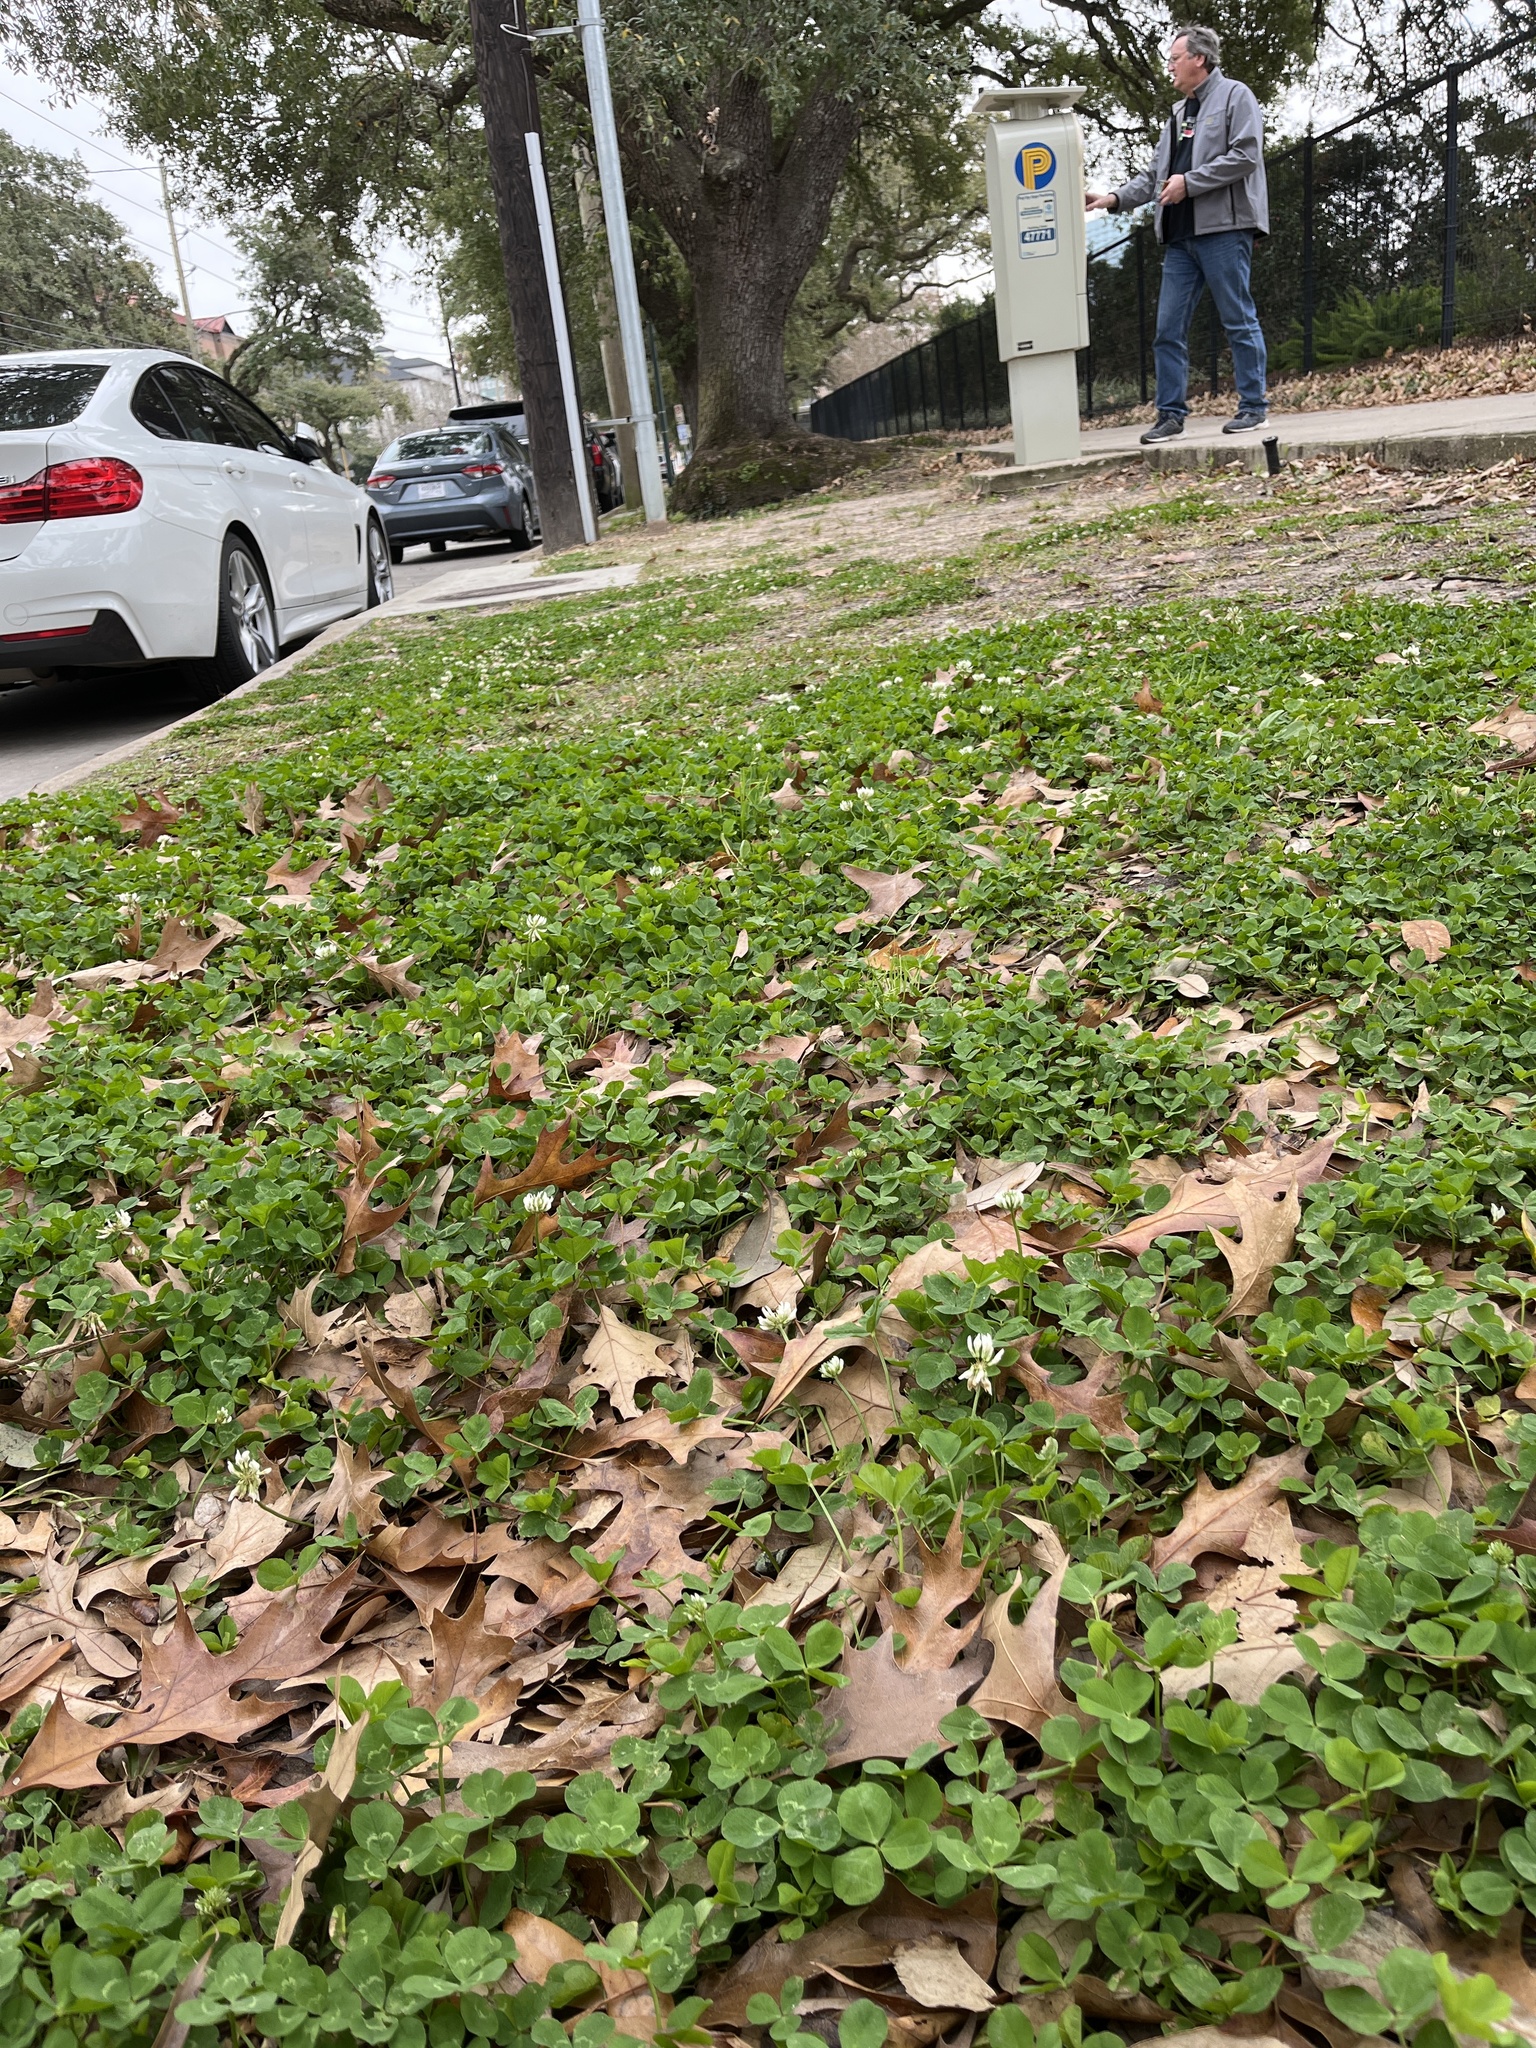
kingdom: Plantae
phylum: Tracheophyta
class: Magnoliopsida
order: Fabales
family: Fabaceae
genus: Trifolium
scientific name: Trifolium repens
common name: White clover
